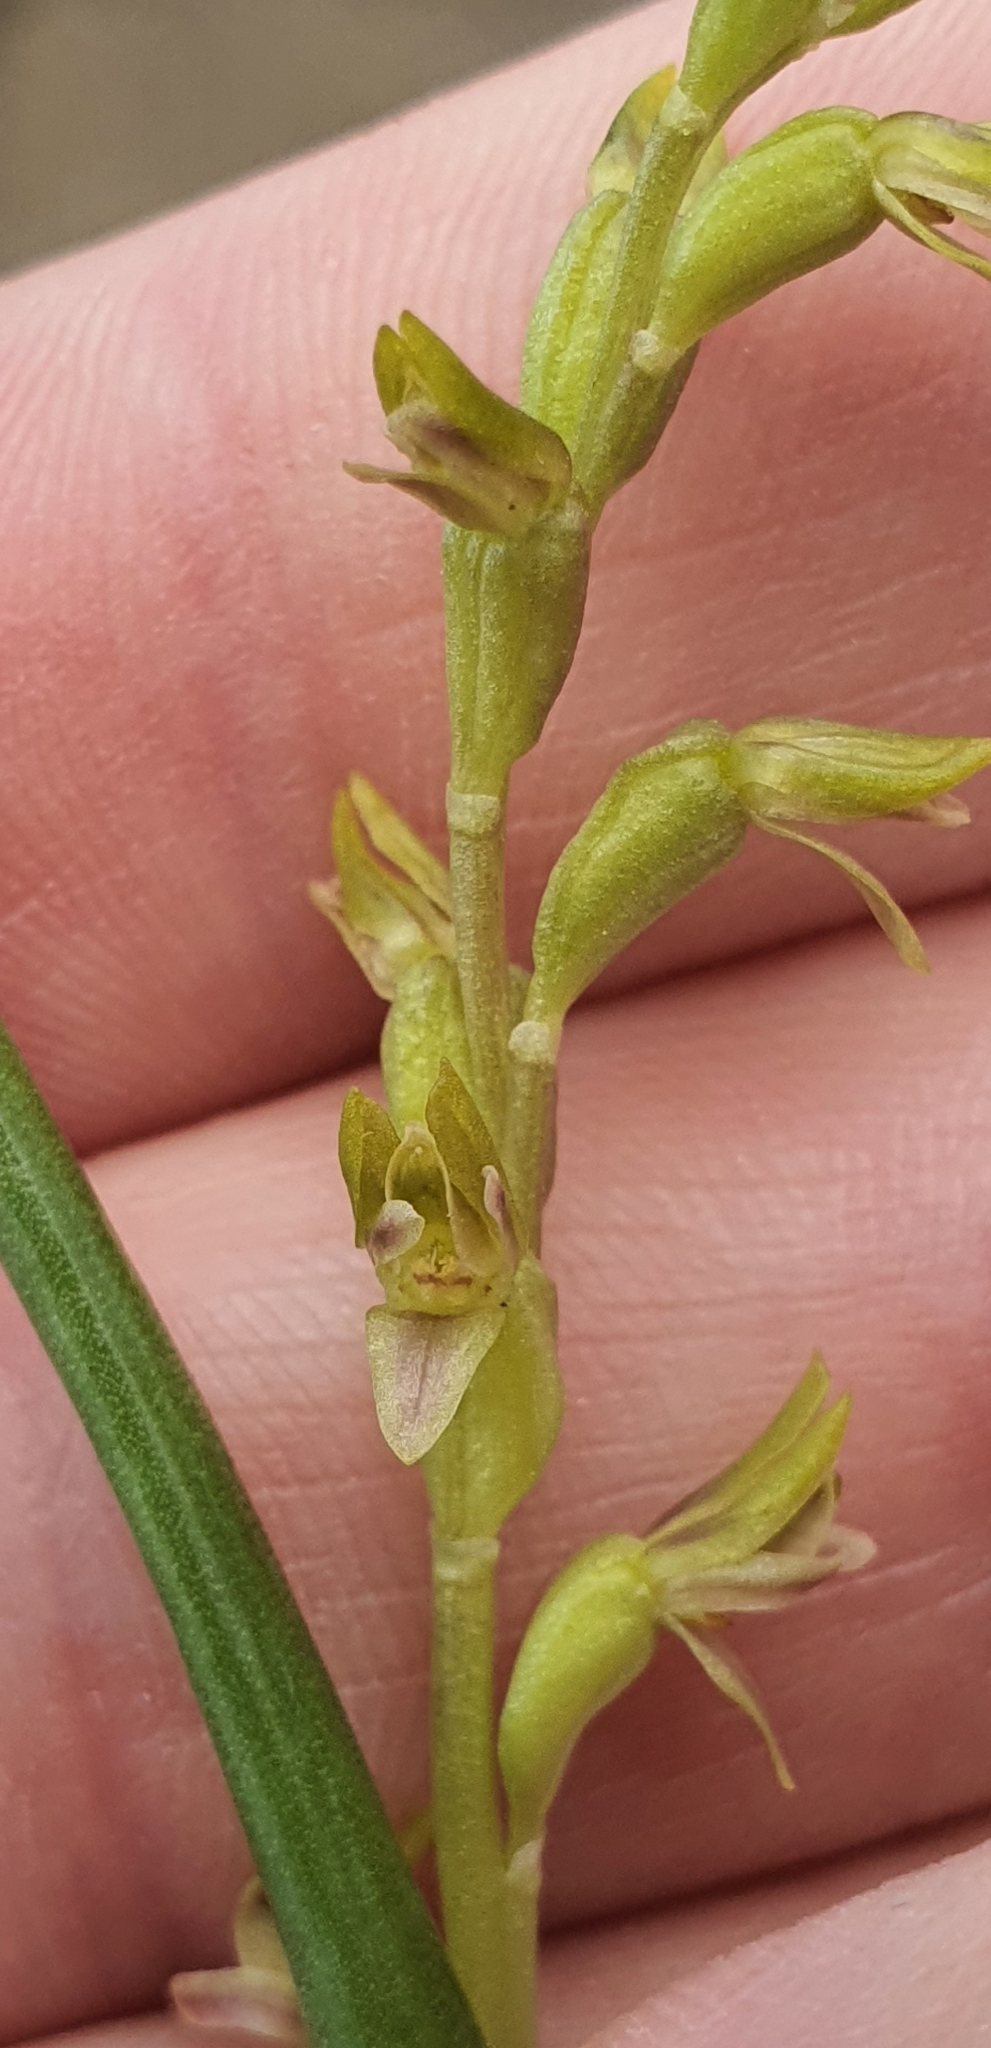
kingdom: Plantae
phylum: Tracheophyta
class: Liliopsida
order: Asparagales
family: Orchidaceae
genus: Prasophyllum
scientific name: Prasophyllum colensoi
